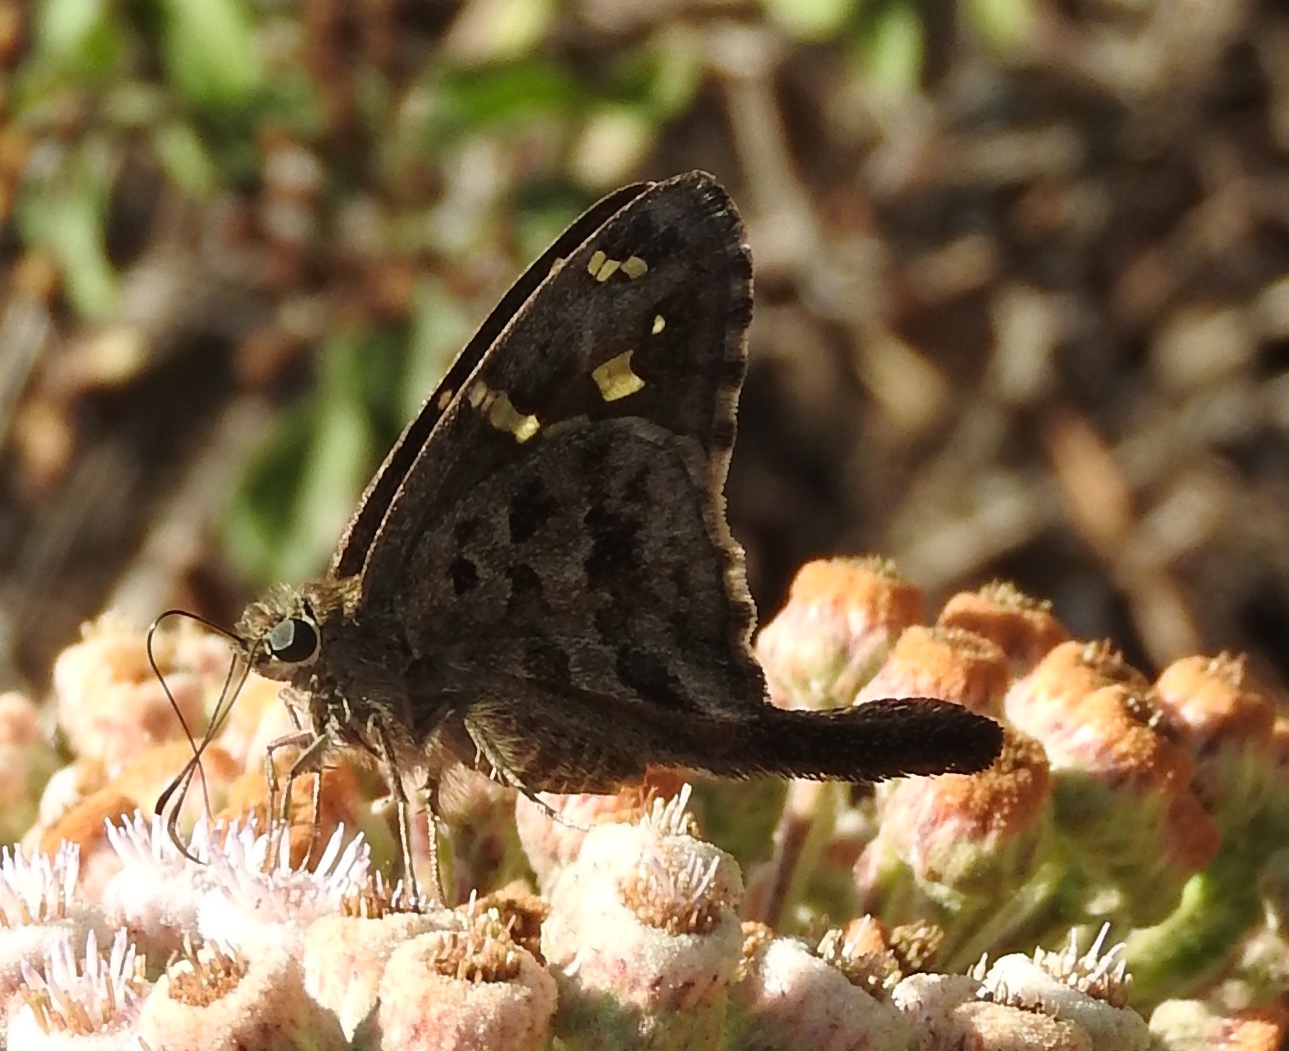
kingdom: Animalia
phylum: Arthropoda
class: Insecta
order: Lepidoptera
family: Hesperiidae
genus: Thorybes
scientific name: Thorybes
